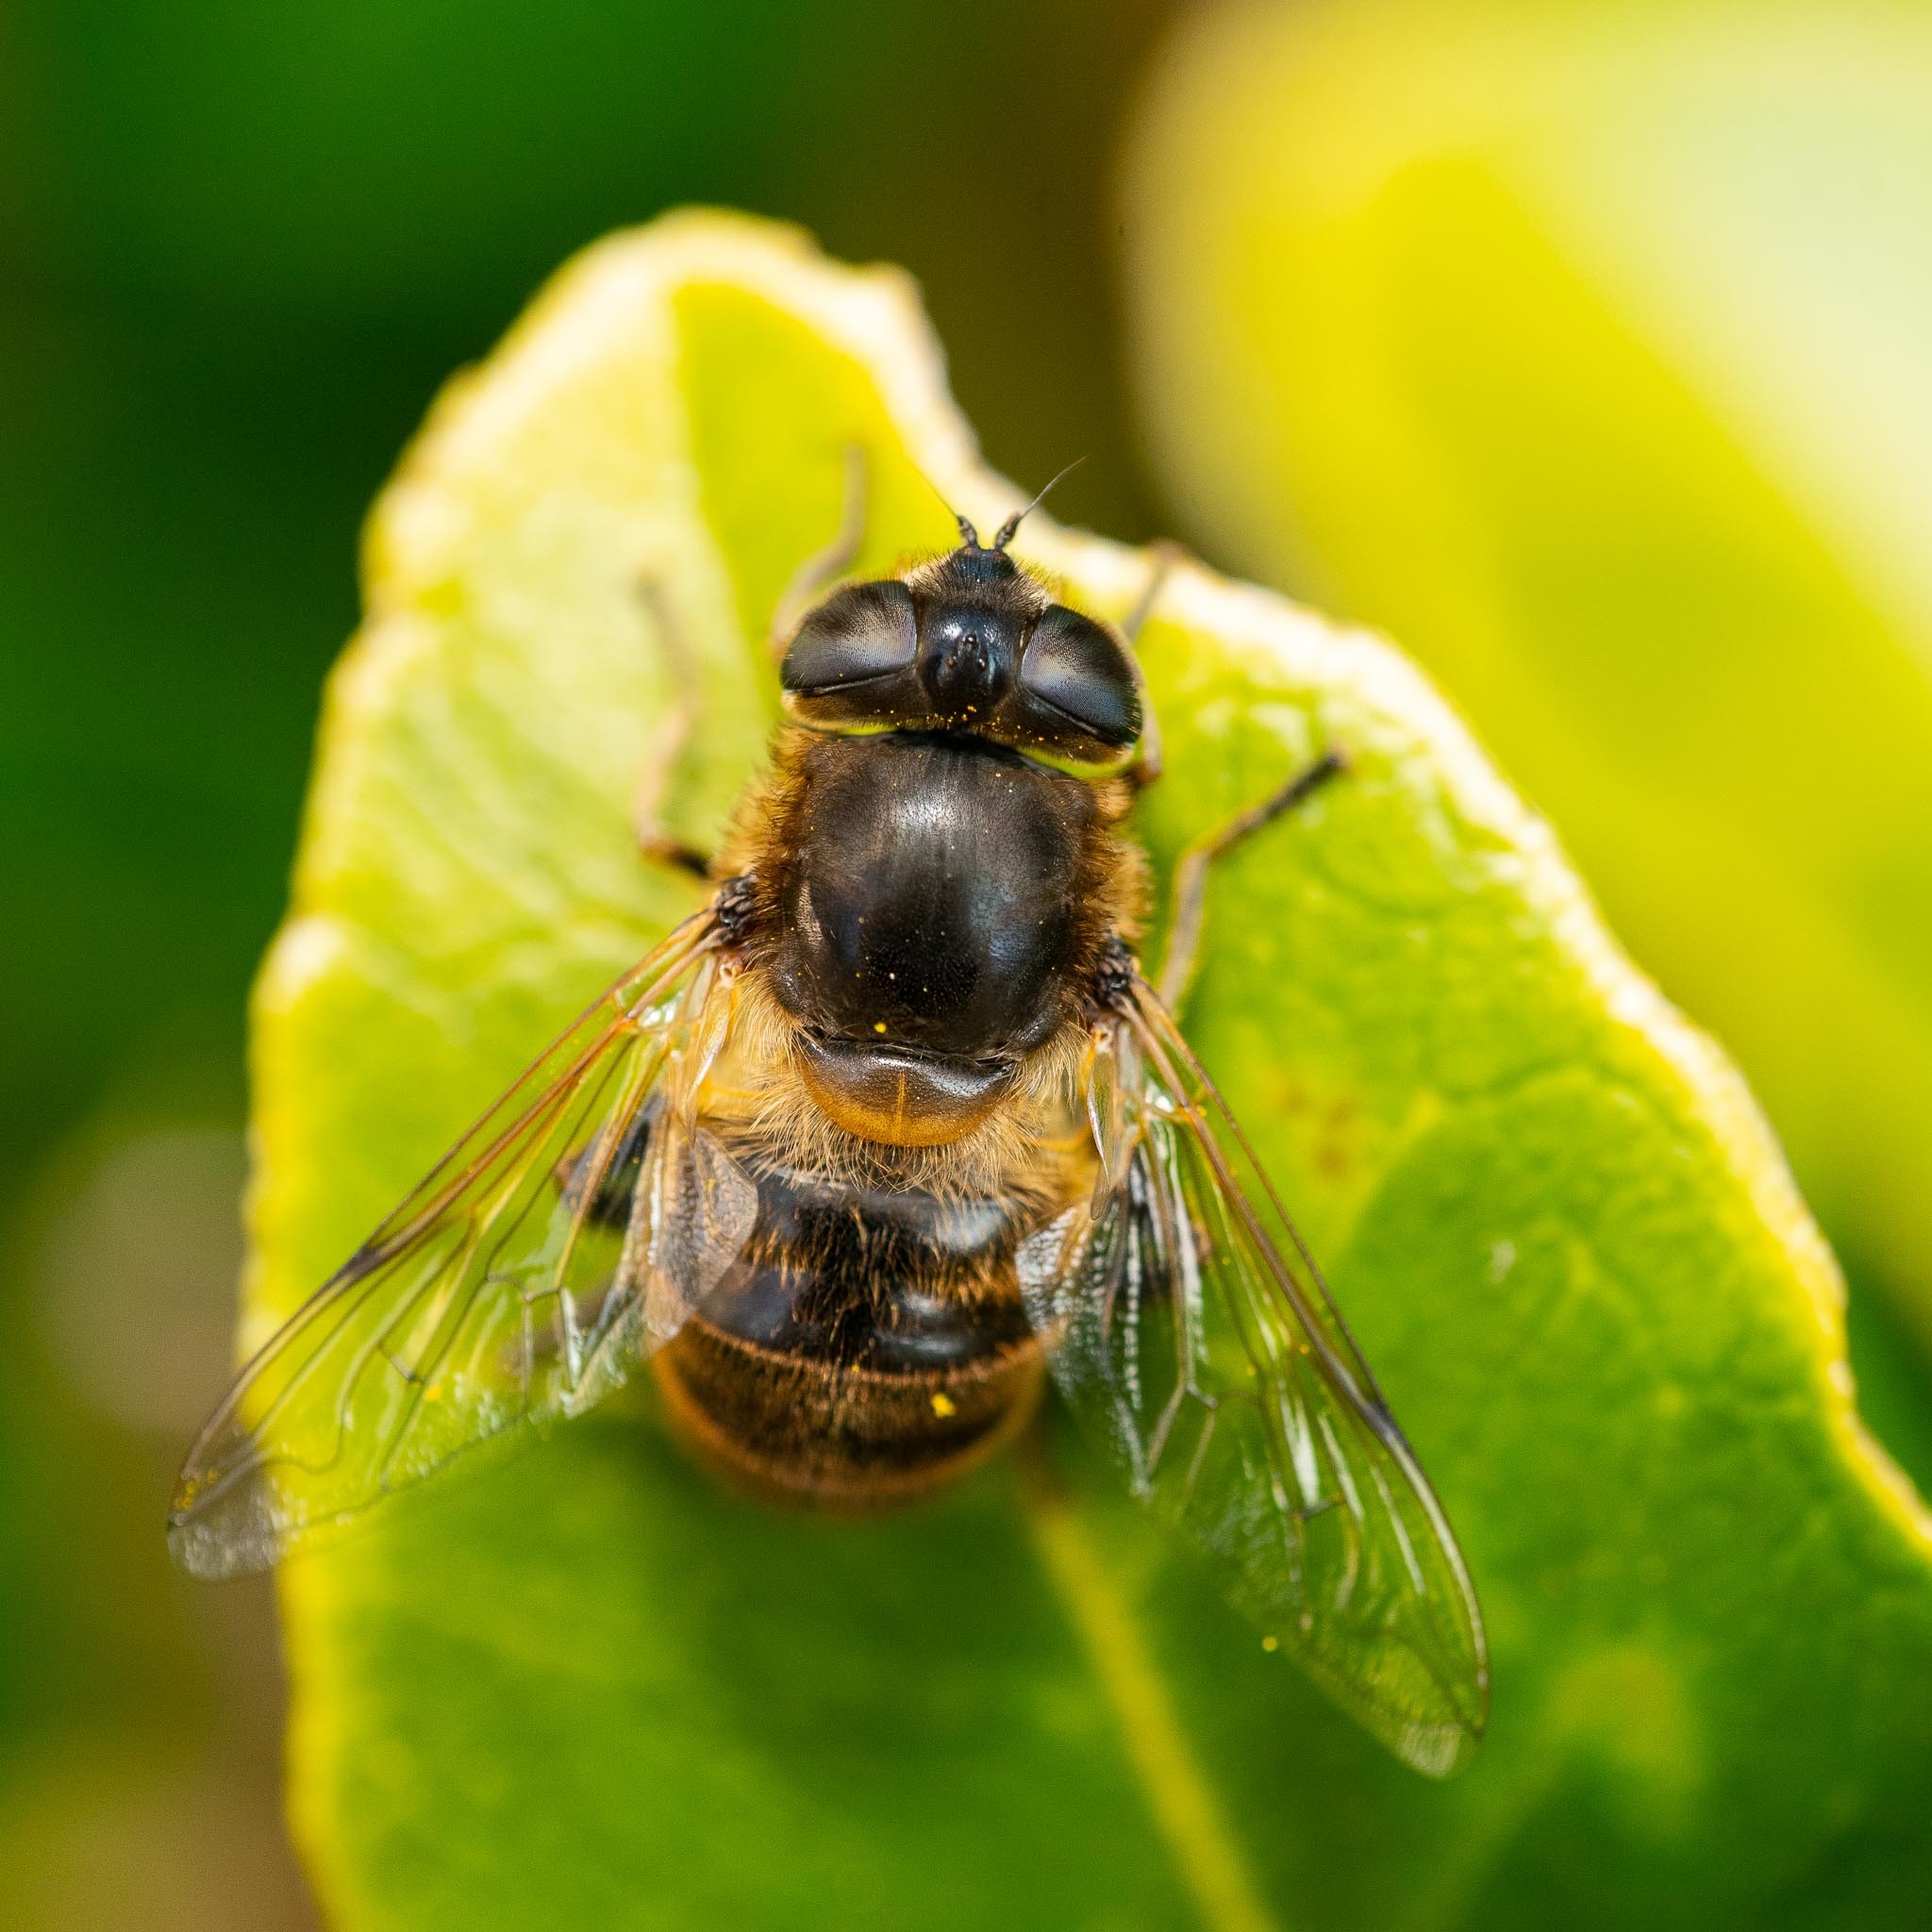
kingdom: Animalia
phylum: Arthropoda
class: Insecta
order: Diptera
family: Syrphidae
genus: Eristalis
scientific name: Eristalis tenax
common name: Drone fly
